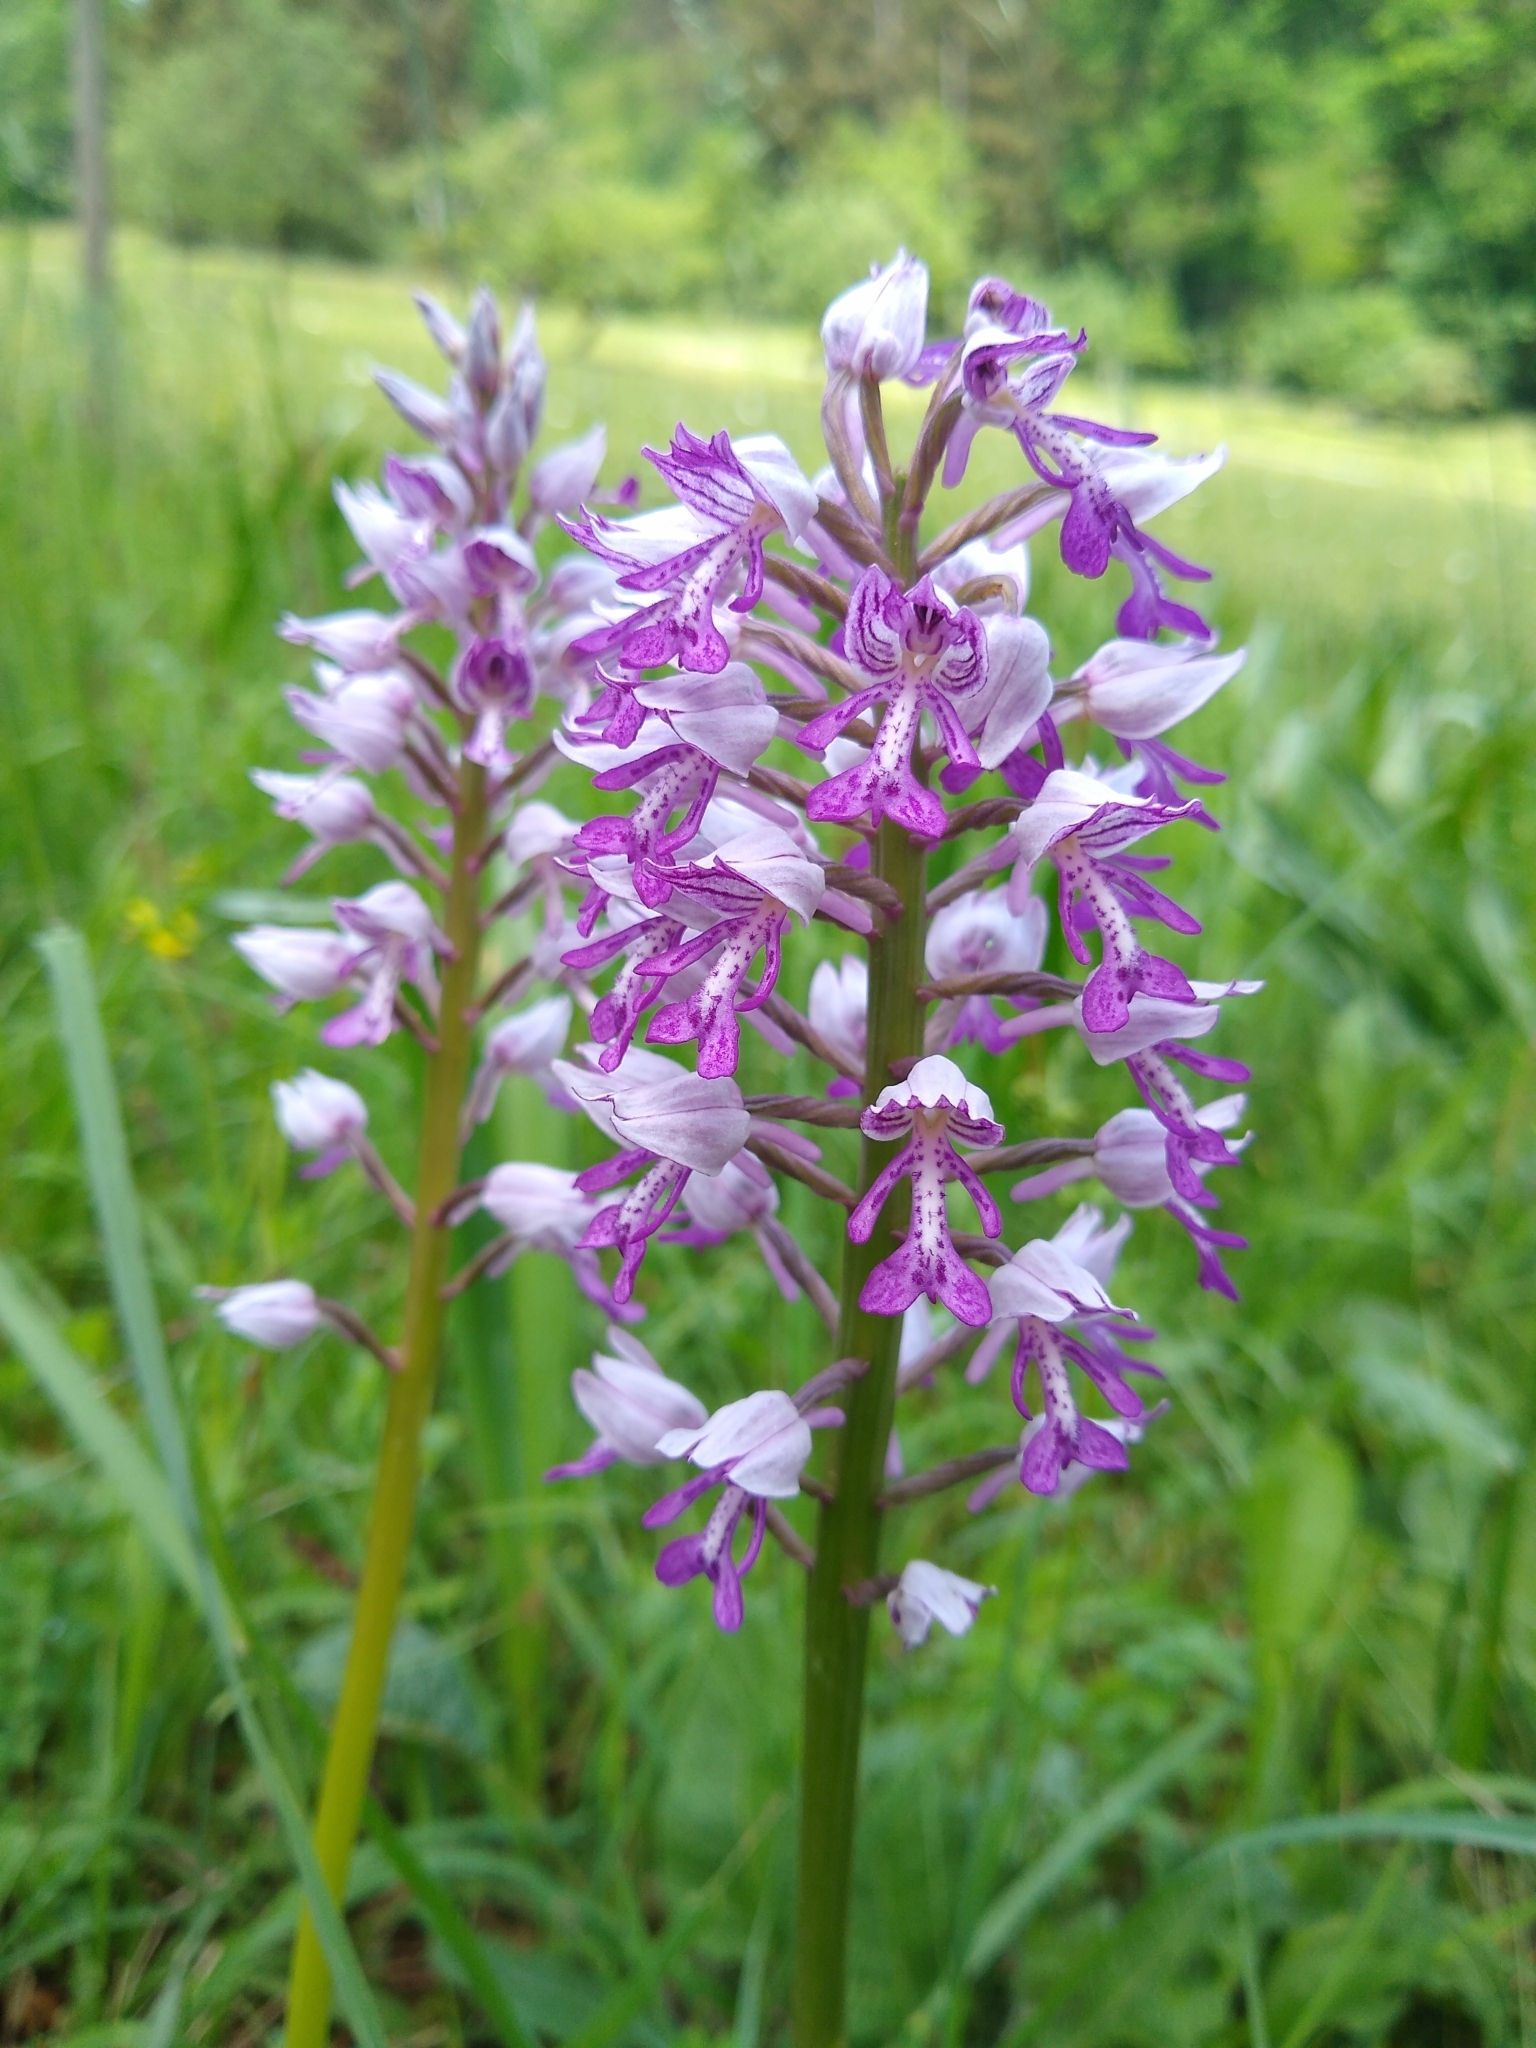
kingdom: Plantae
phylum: Tracheophyta
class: Liliopsida
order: Asparagales
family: Orchidaceae
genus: Orchis
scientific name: Orchis militaris
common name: Military orchid
